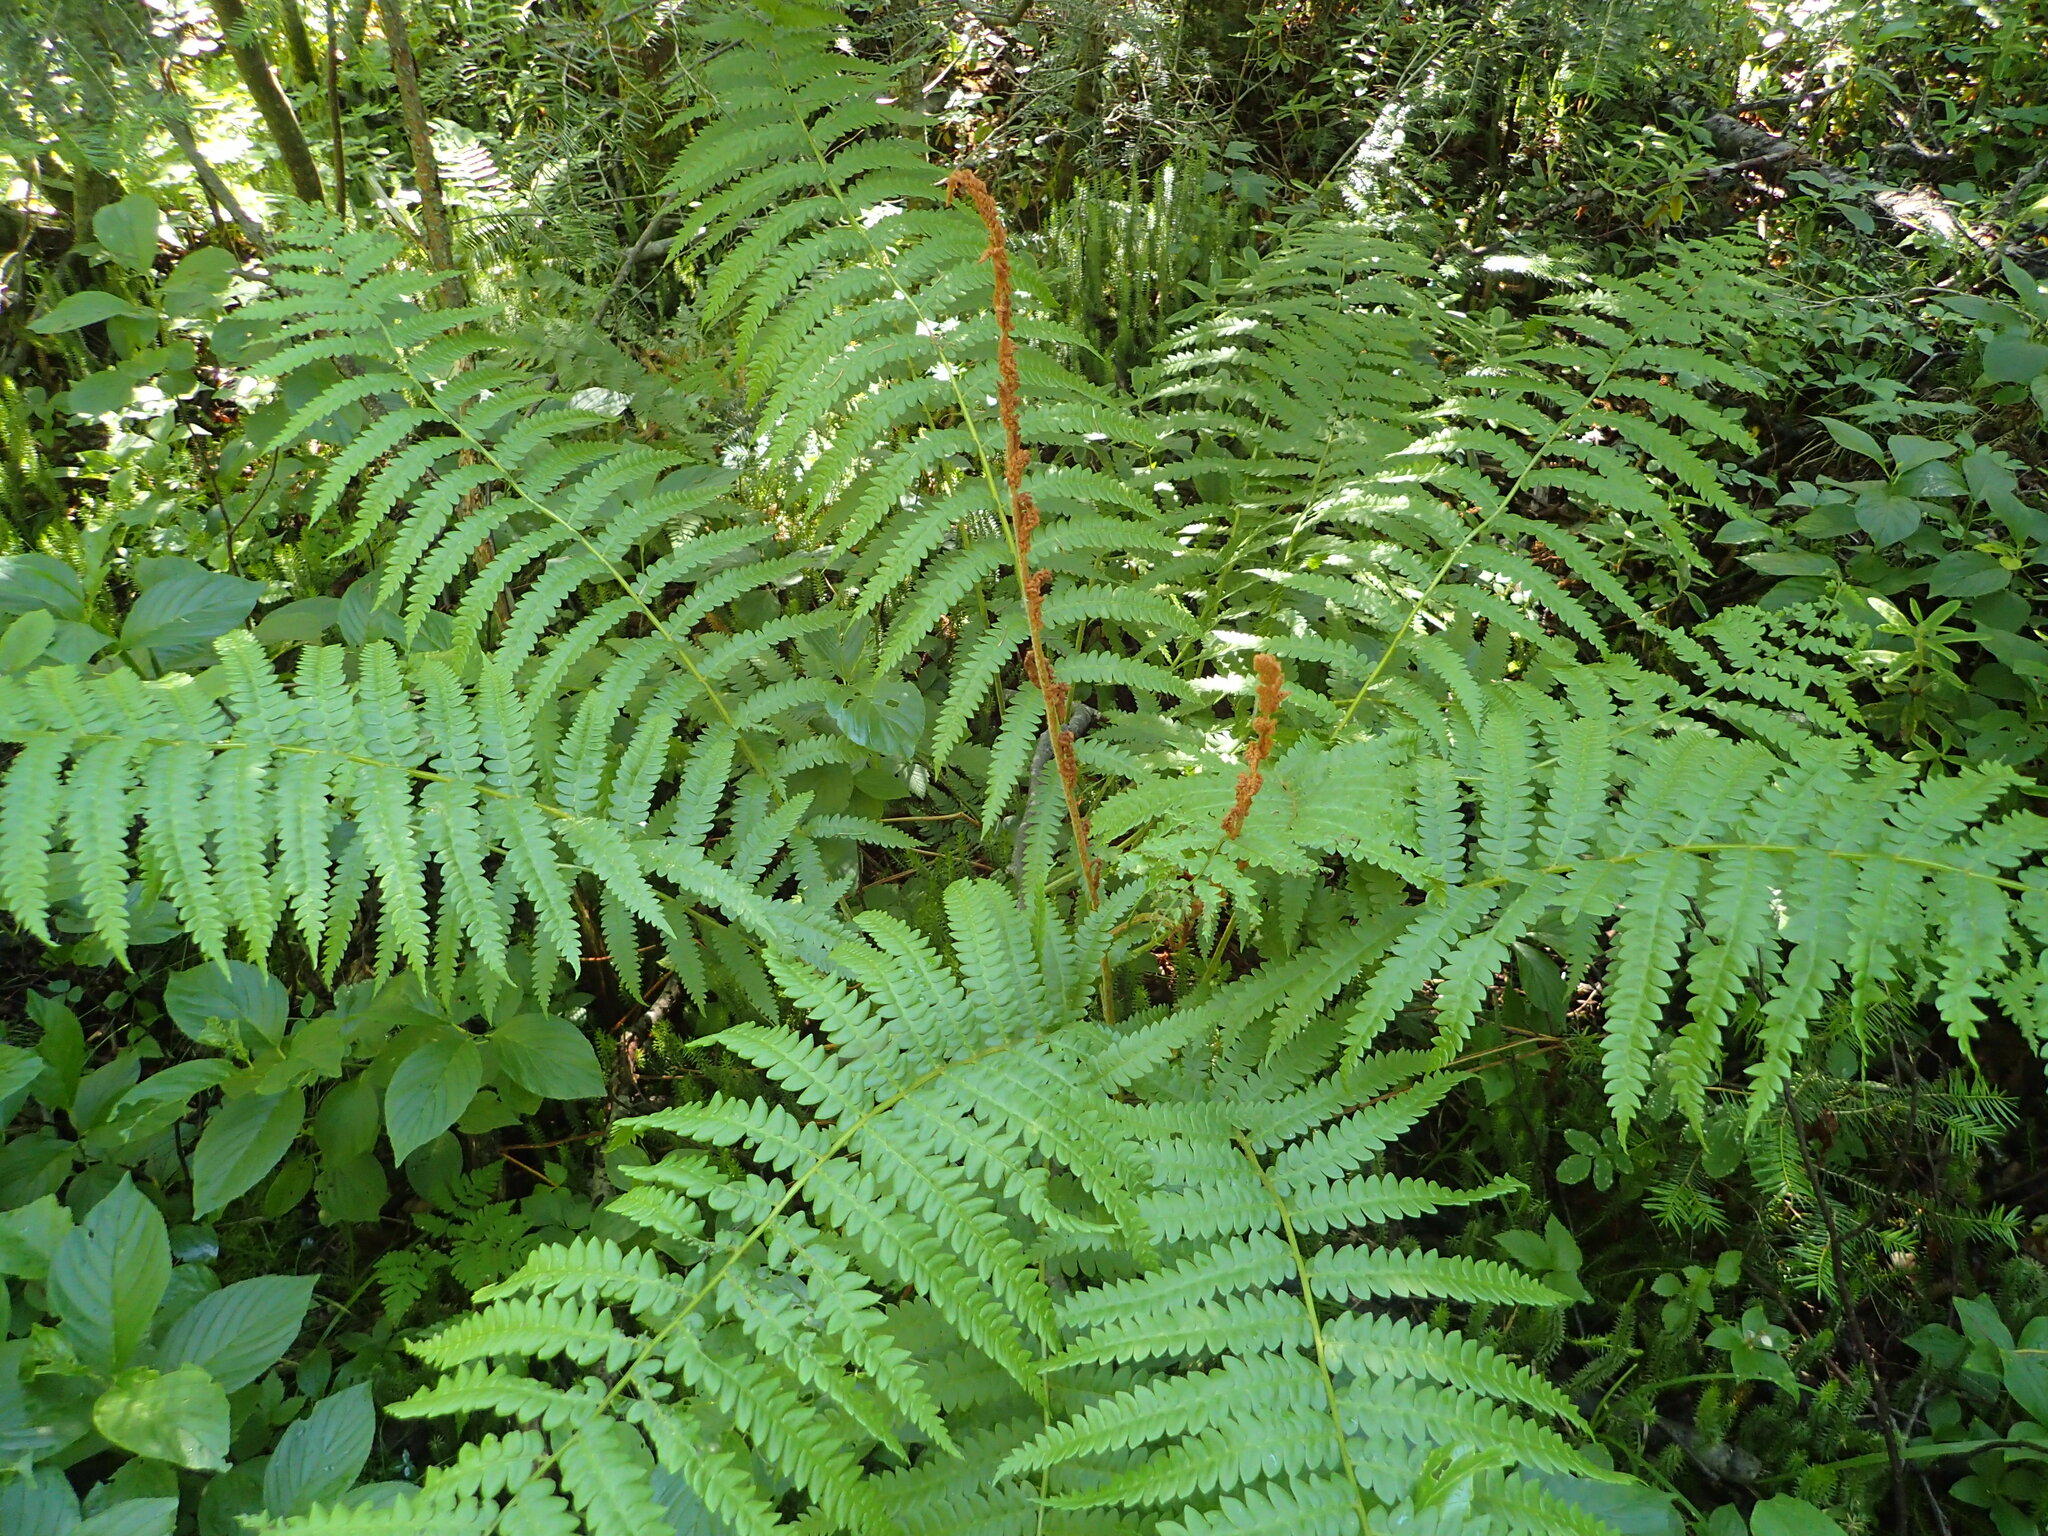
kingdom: Plantae
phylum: Tracheophyta
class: Polypodiopsida
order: Osmundales
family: Osmundaceae
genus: Osmundastrum
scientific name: Osmundastrum cinnamomeum
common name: Cinnamon fern
